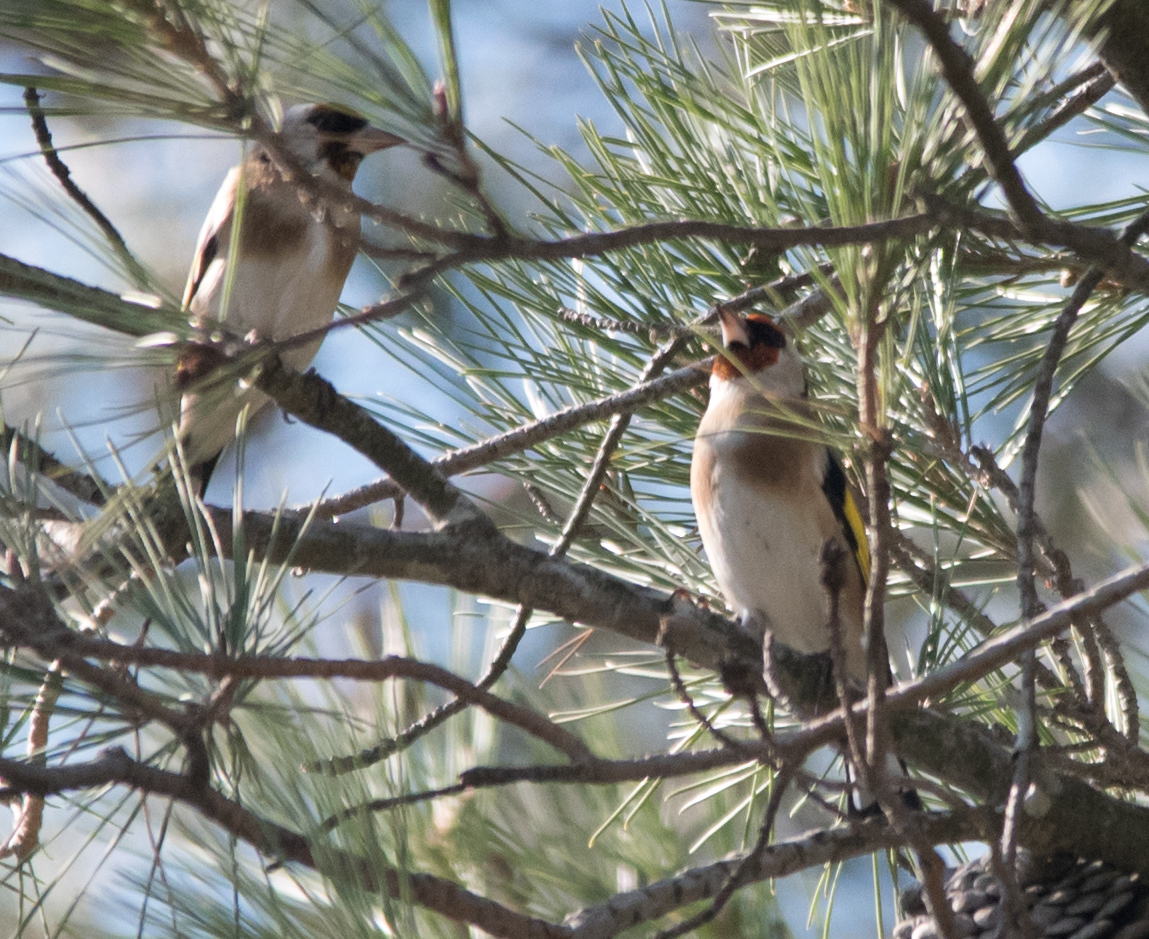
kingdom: Animalia
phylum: Chordata
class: Aves
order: Passeriformes
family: Fringillidae
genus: Carduelis
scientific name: Carduelis carduelis
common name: European goldfinch
